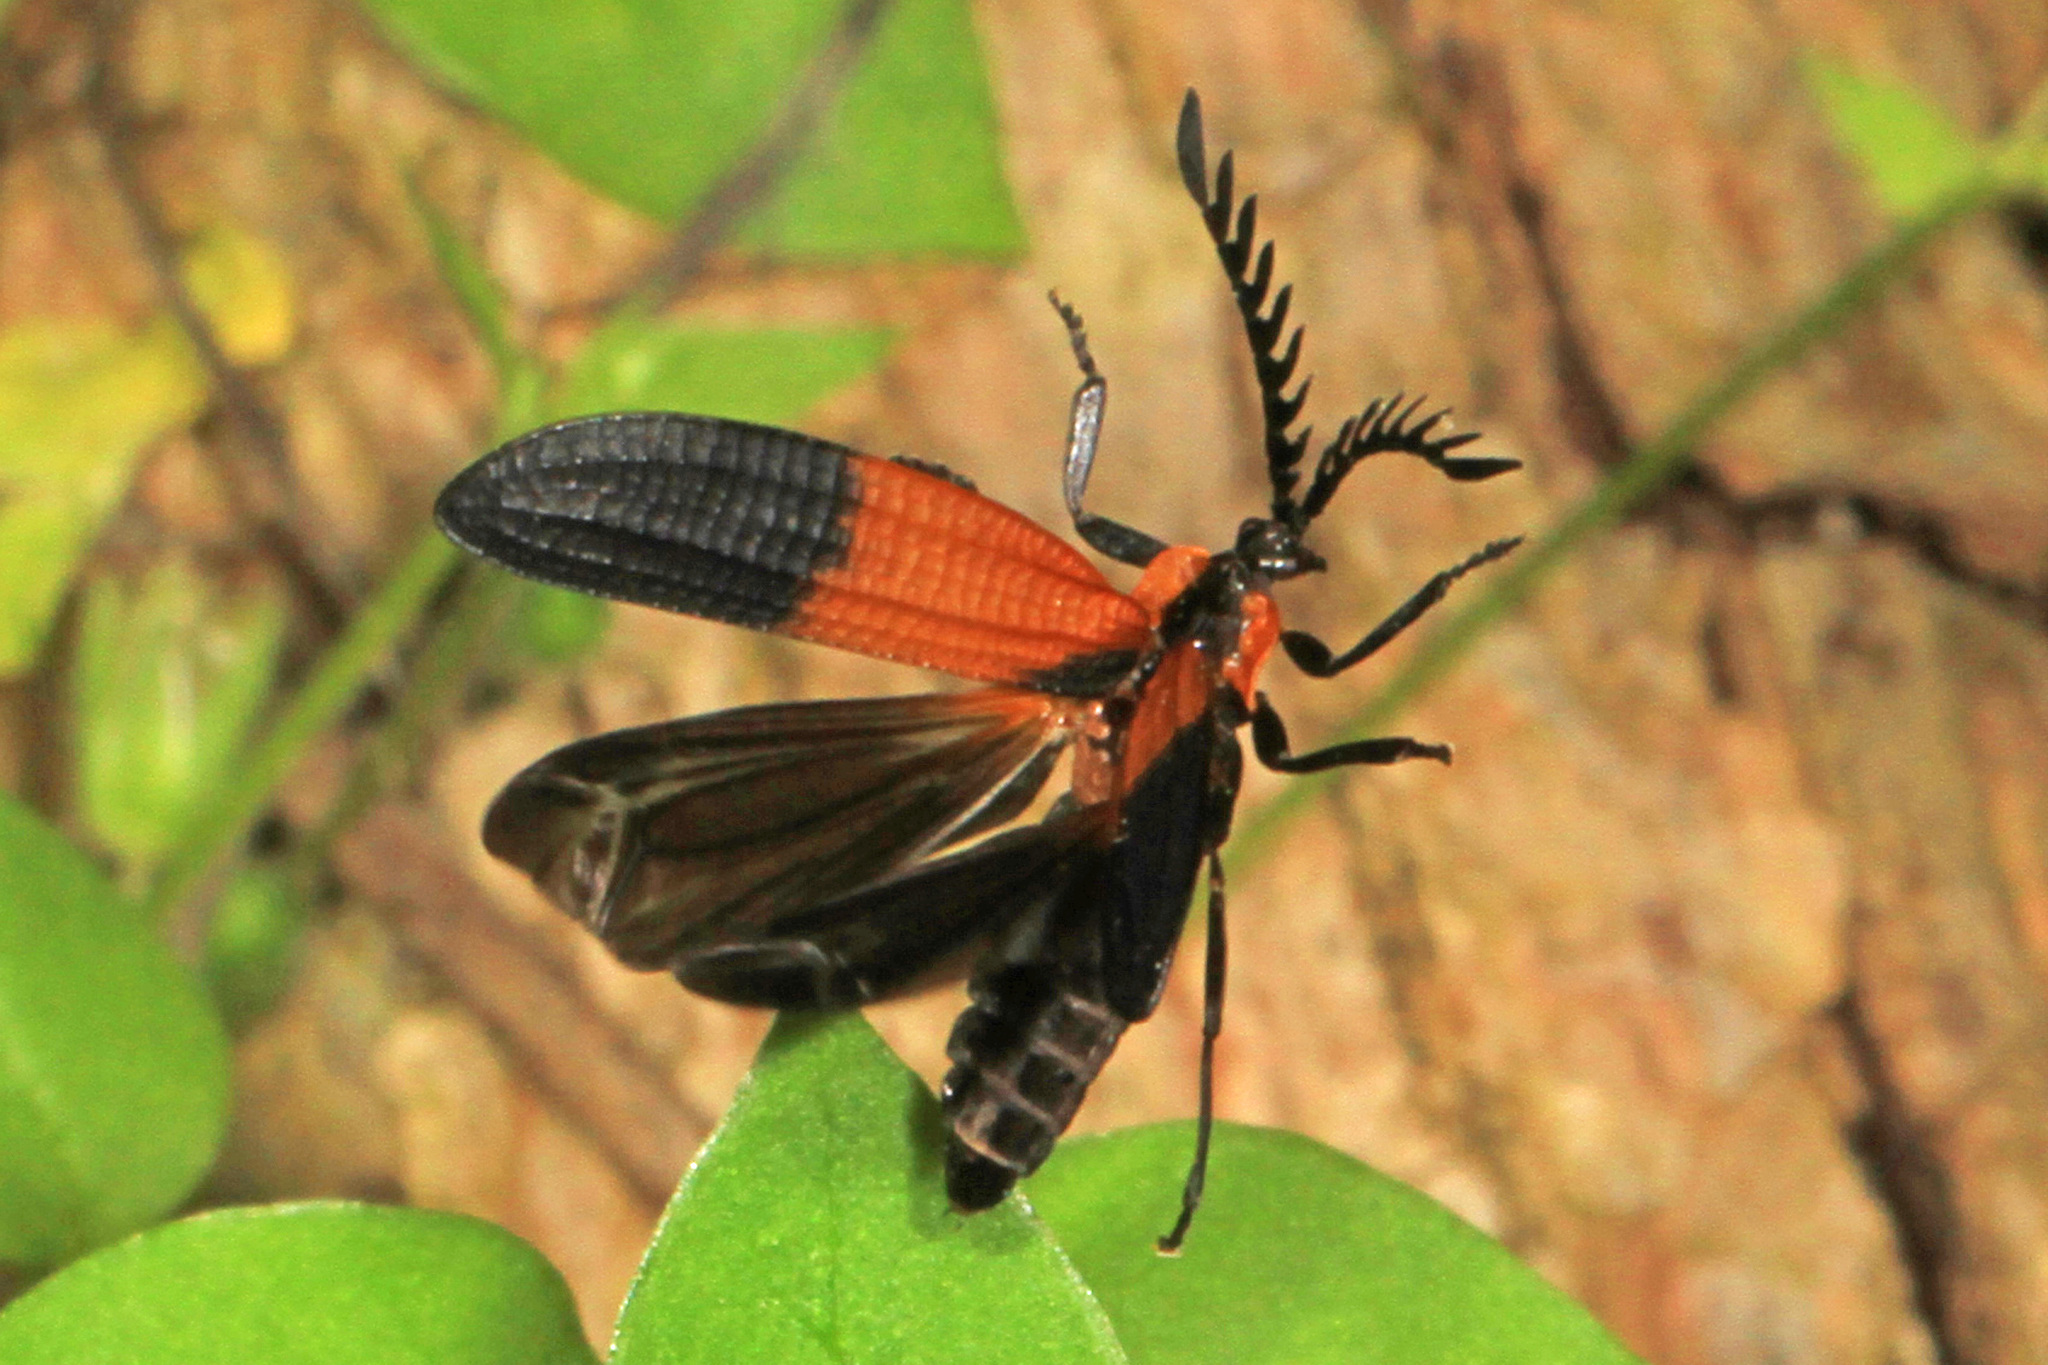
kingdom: Animalia
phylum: Arthropoda
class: Insecta
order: Coleoptera
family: Lycidae
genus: Caenia
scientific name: Caenia dimidiata
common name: Terminal net-winged beetle
